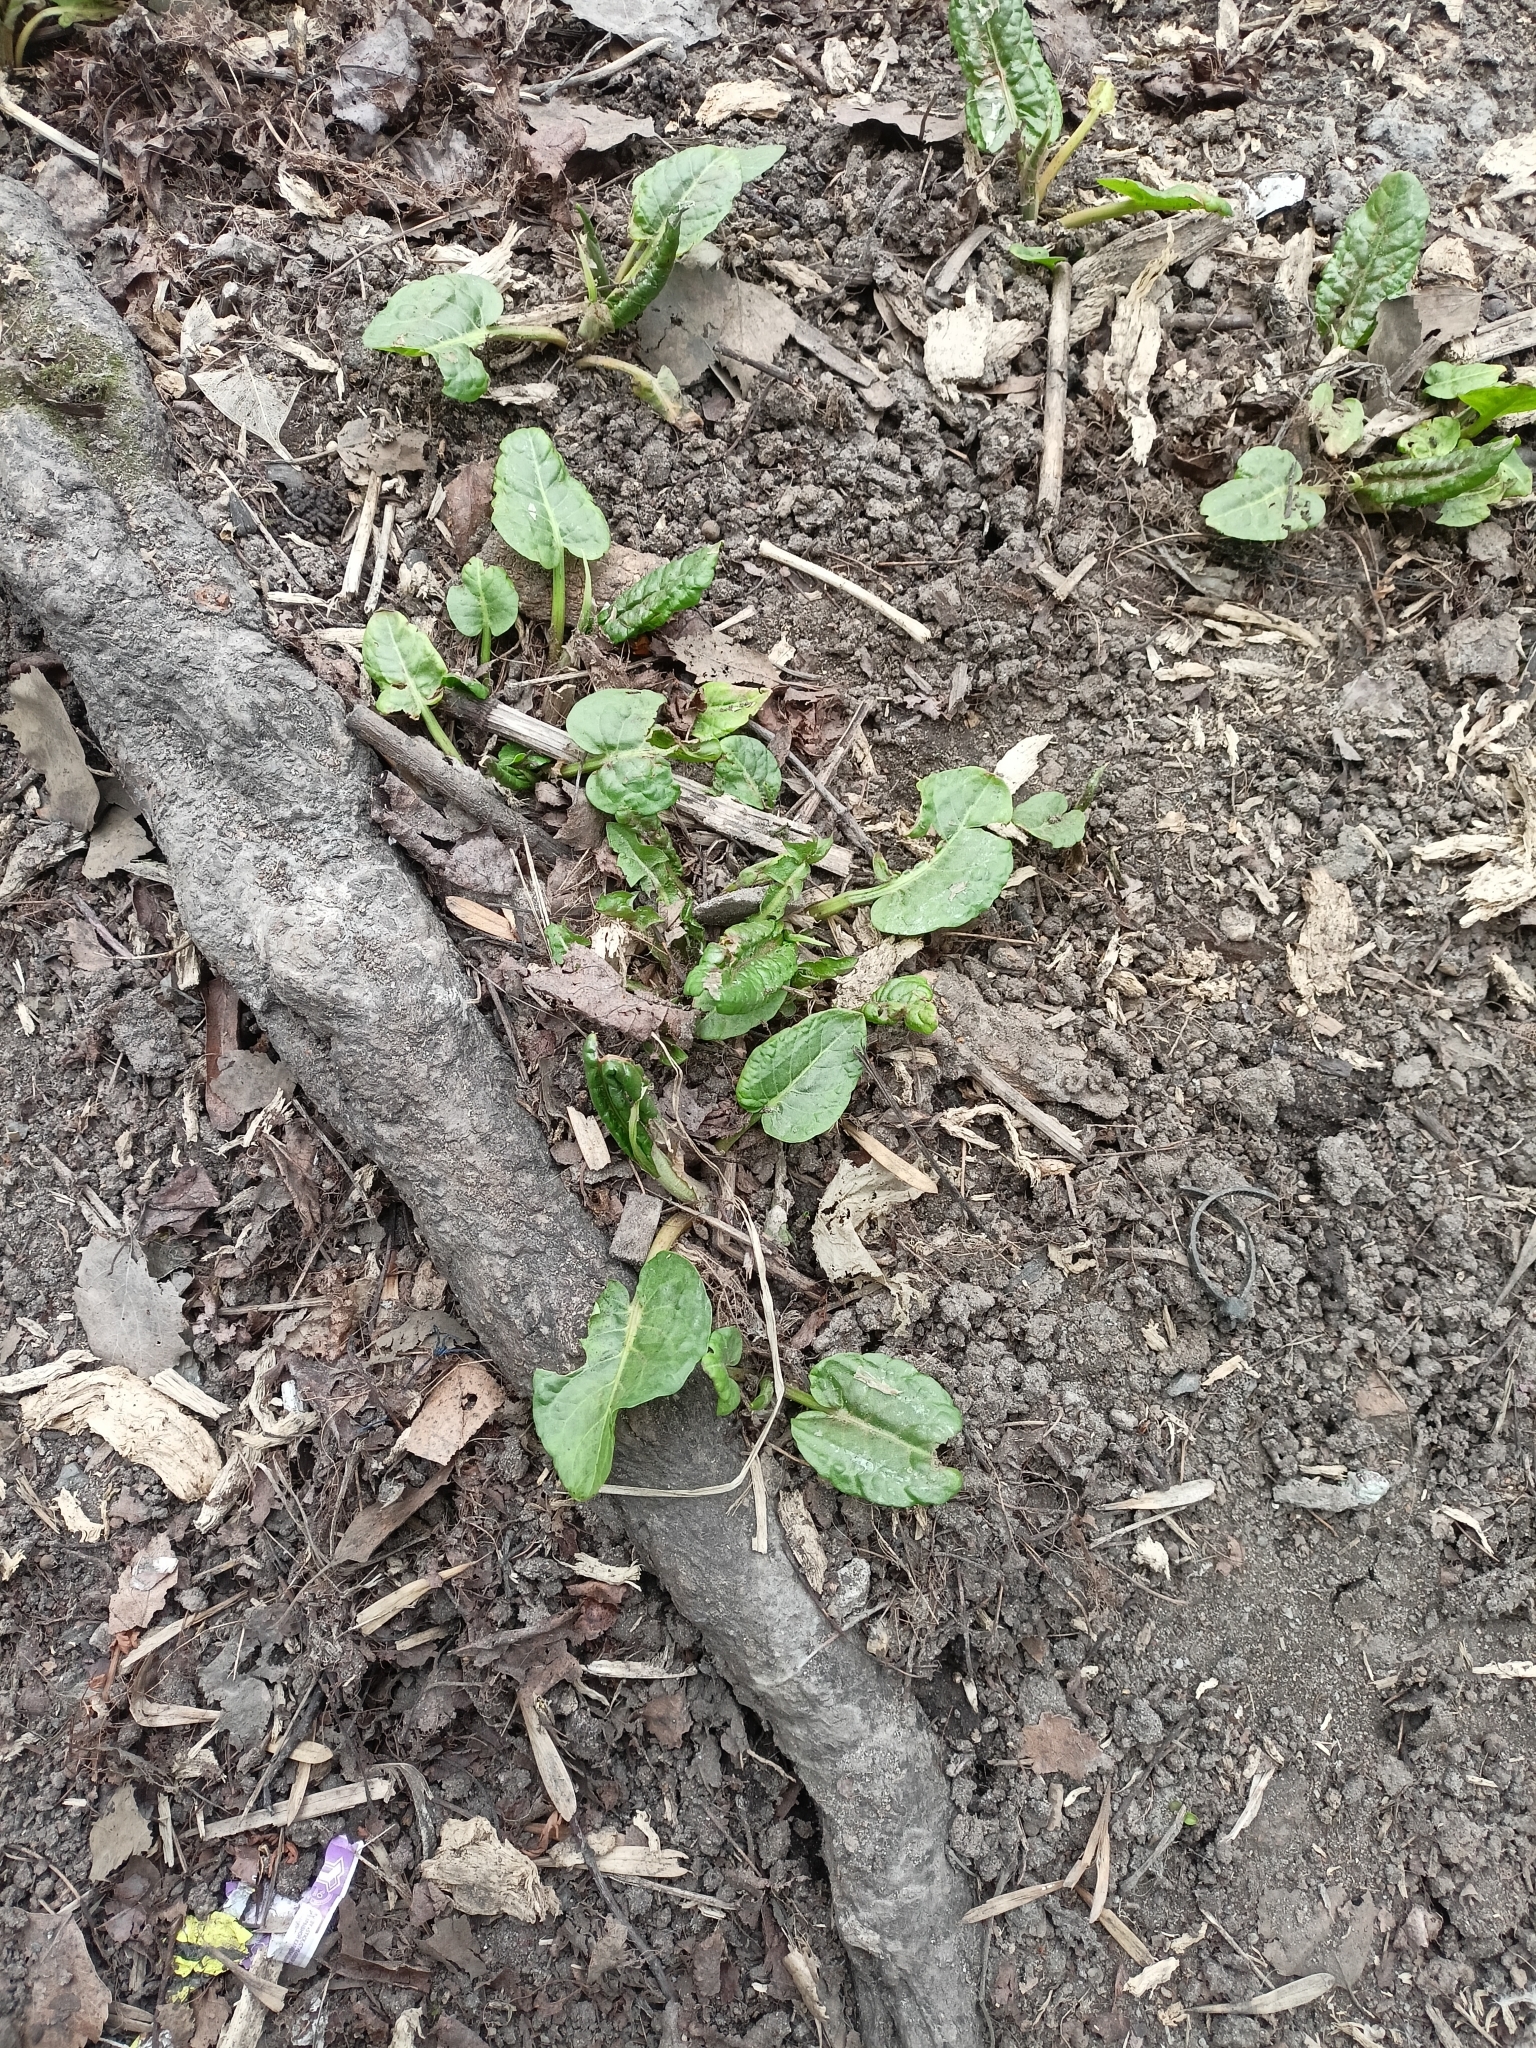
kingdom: Plantae
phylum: Tracheophyta
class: Magnoliopsida
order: Caryophyllales
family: Polygonaceae
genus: Rumex
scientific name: Rumex obtusifolius
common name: Bitter dock
